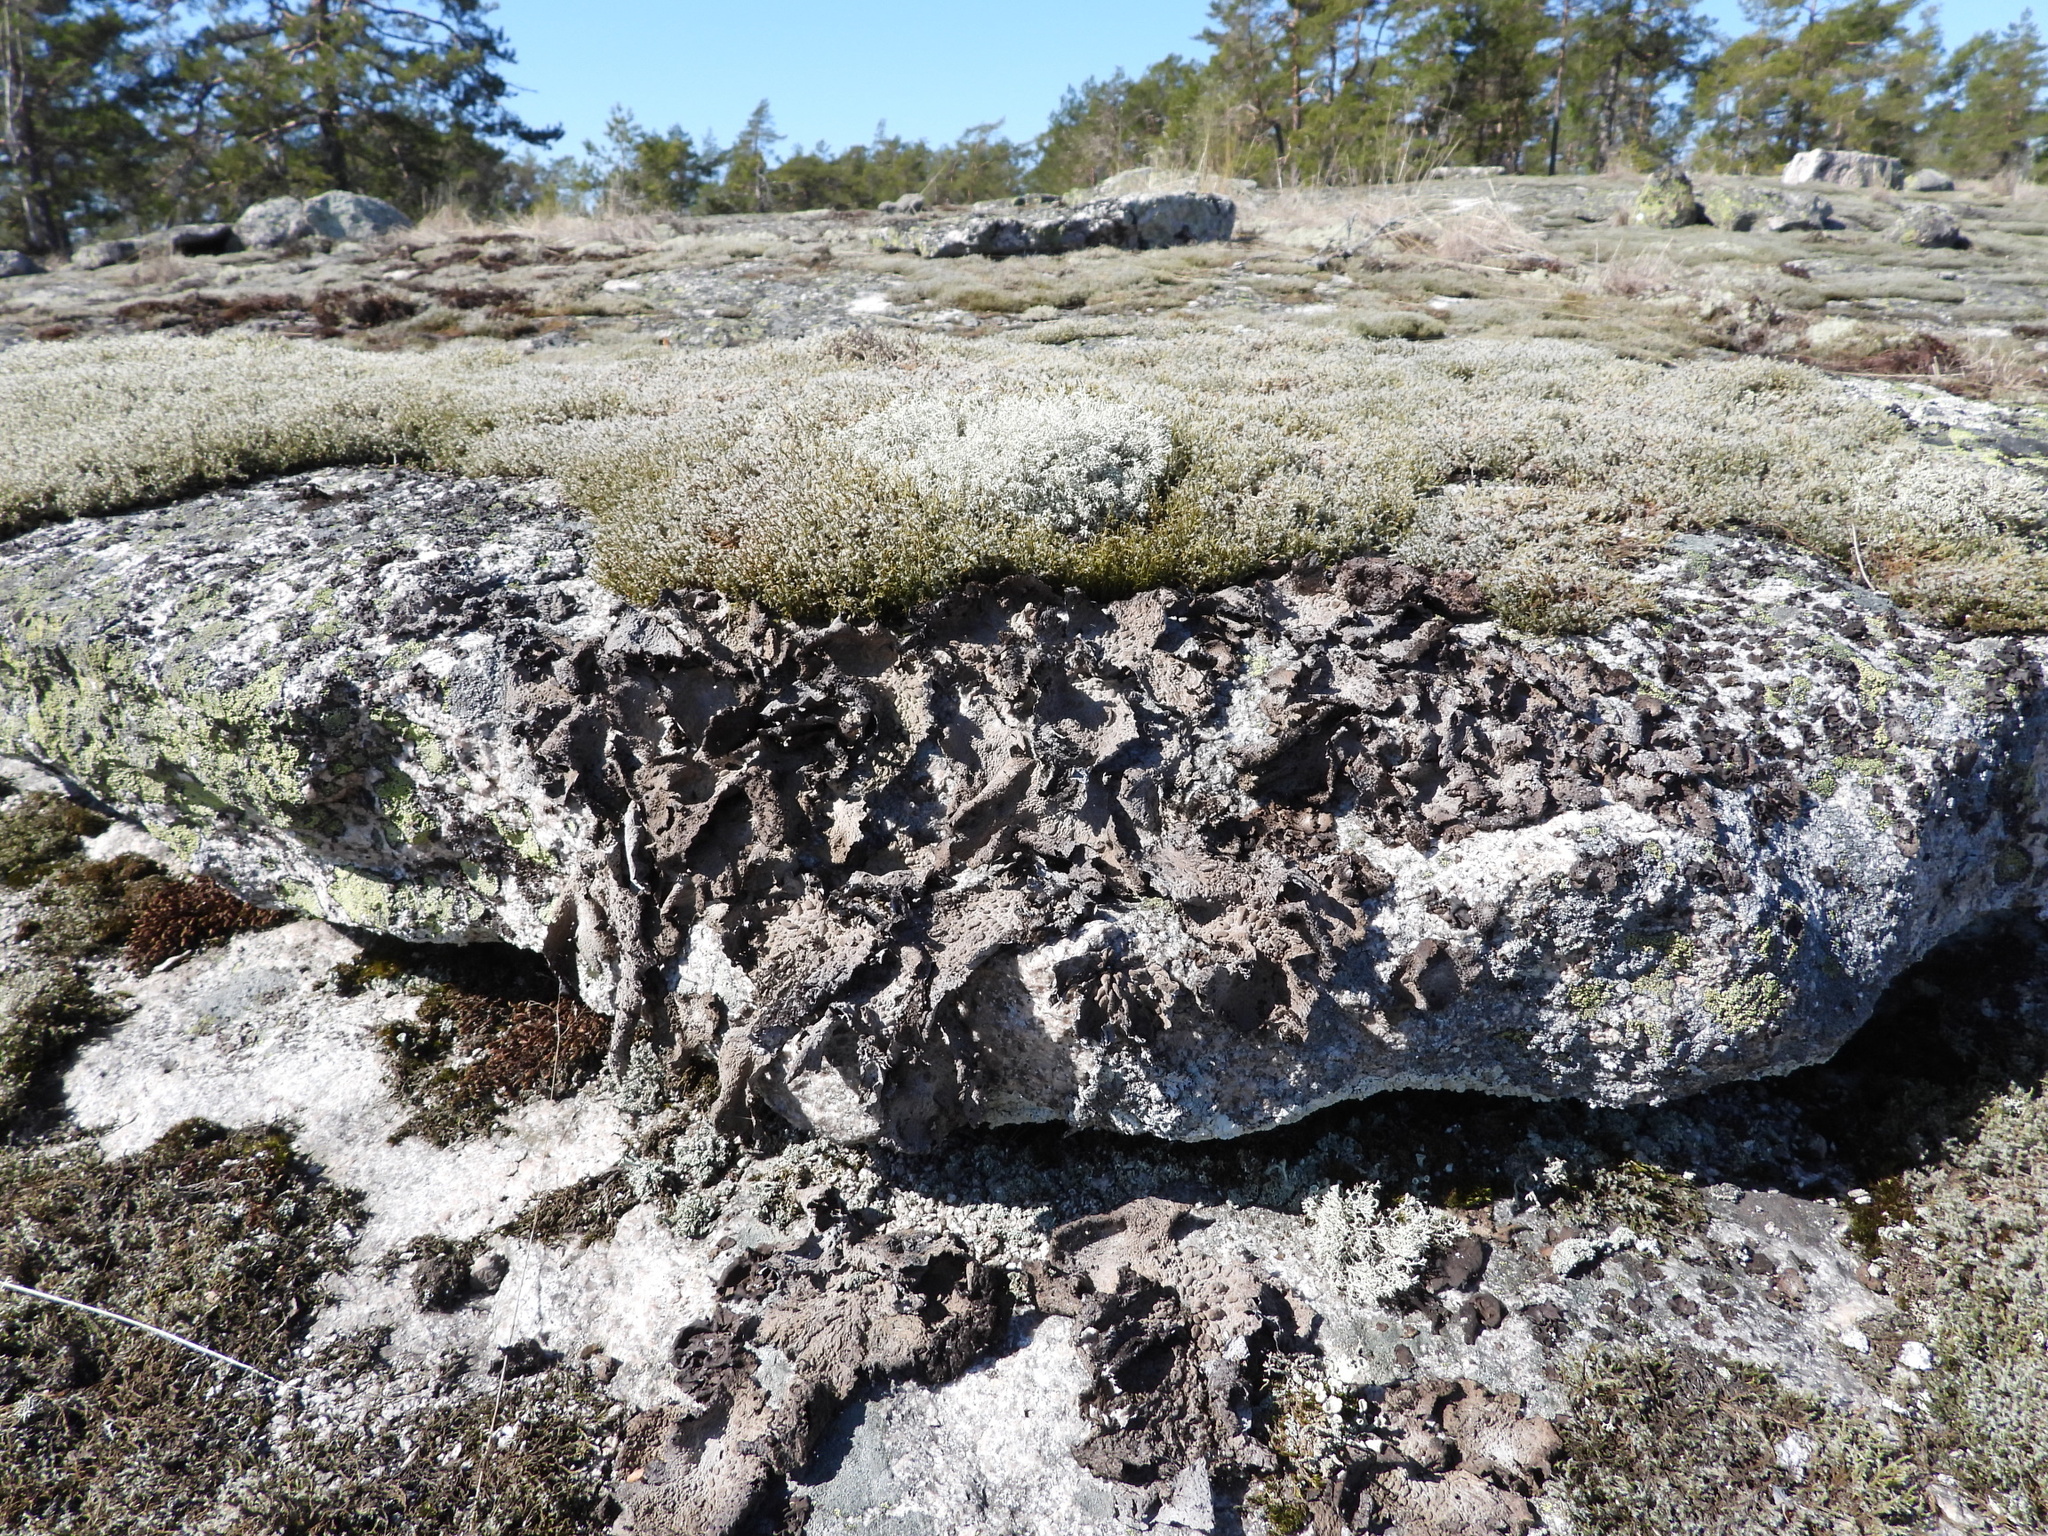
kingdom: Fungi
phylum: Ascomycota
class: Lecanoromycetes
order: Umbilicariales
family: Umbilicariaceae
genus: Lasallia
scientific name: Lasallia pustulata
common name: Blistered toadskin lichen
